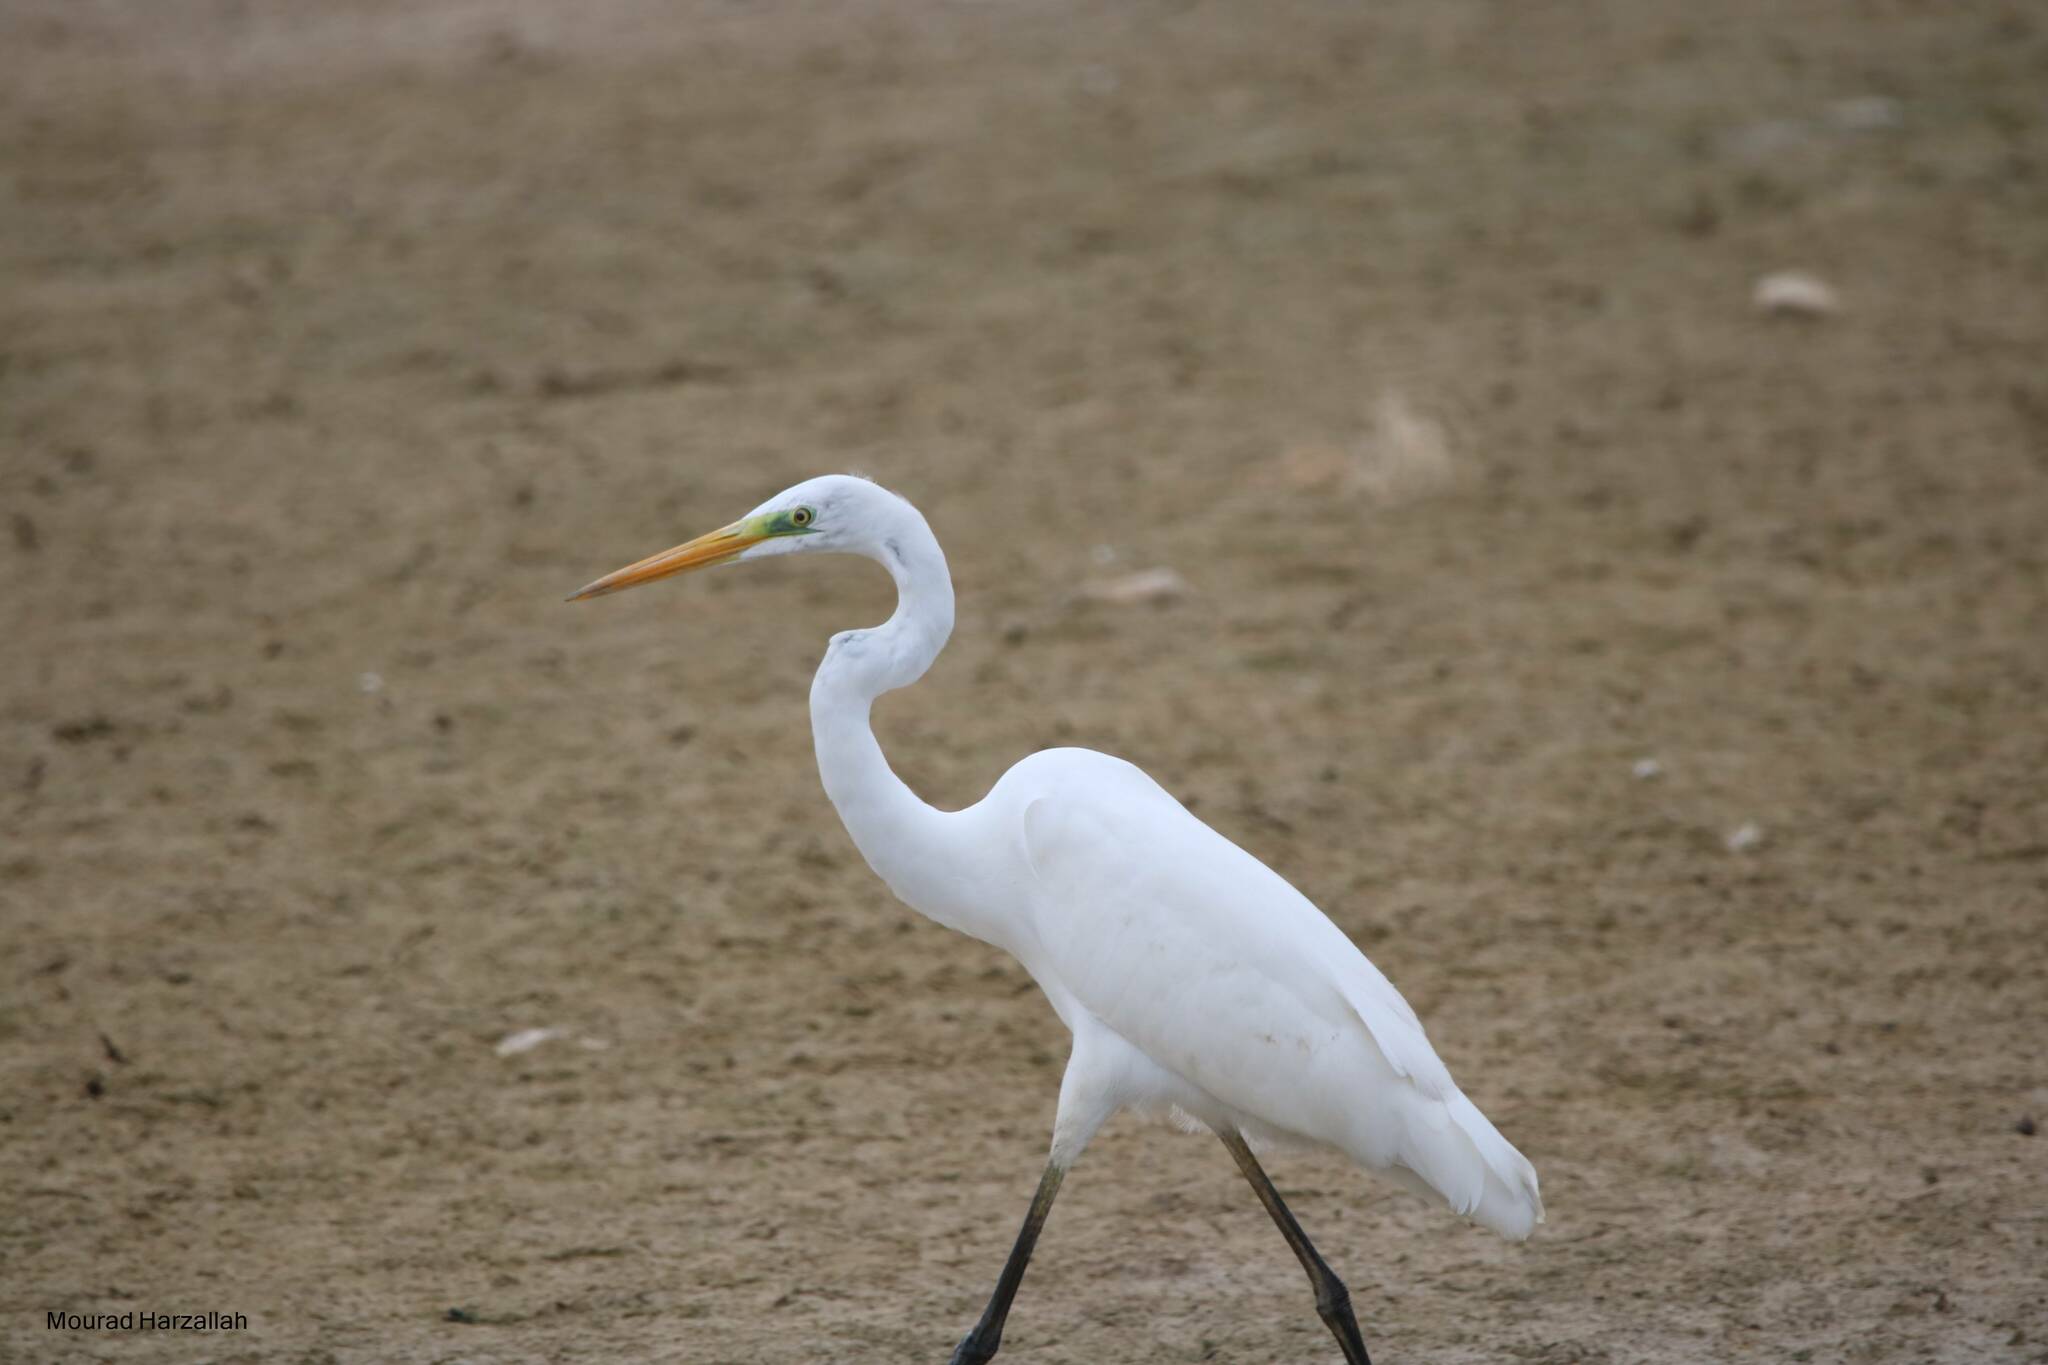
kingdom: Animalia
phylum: Chordata
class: Aves
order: Pelecaniformes
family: Ardeidae
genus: Ardea
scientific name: Ardea alba
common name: Great egret
